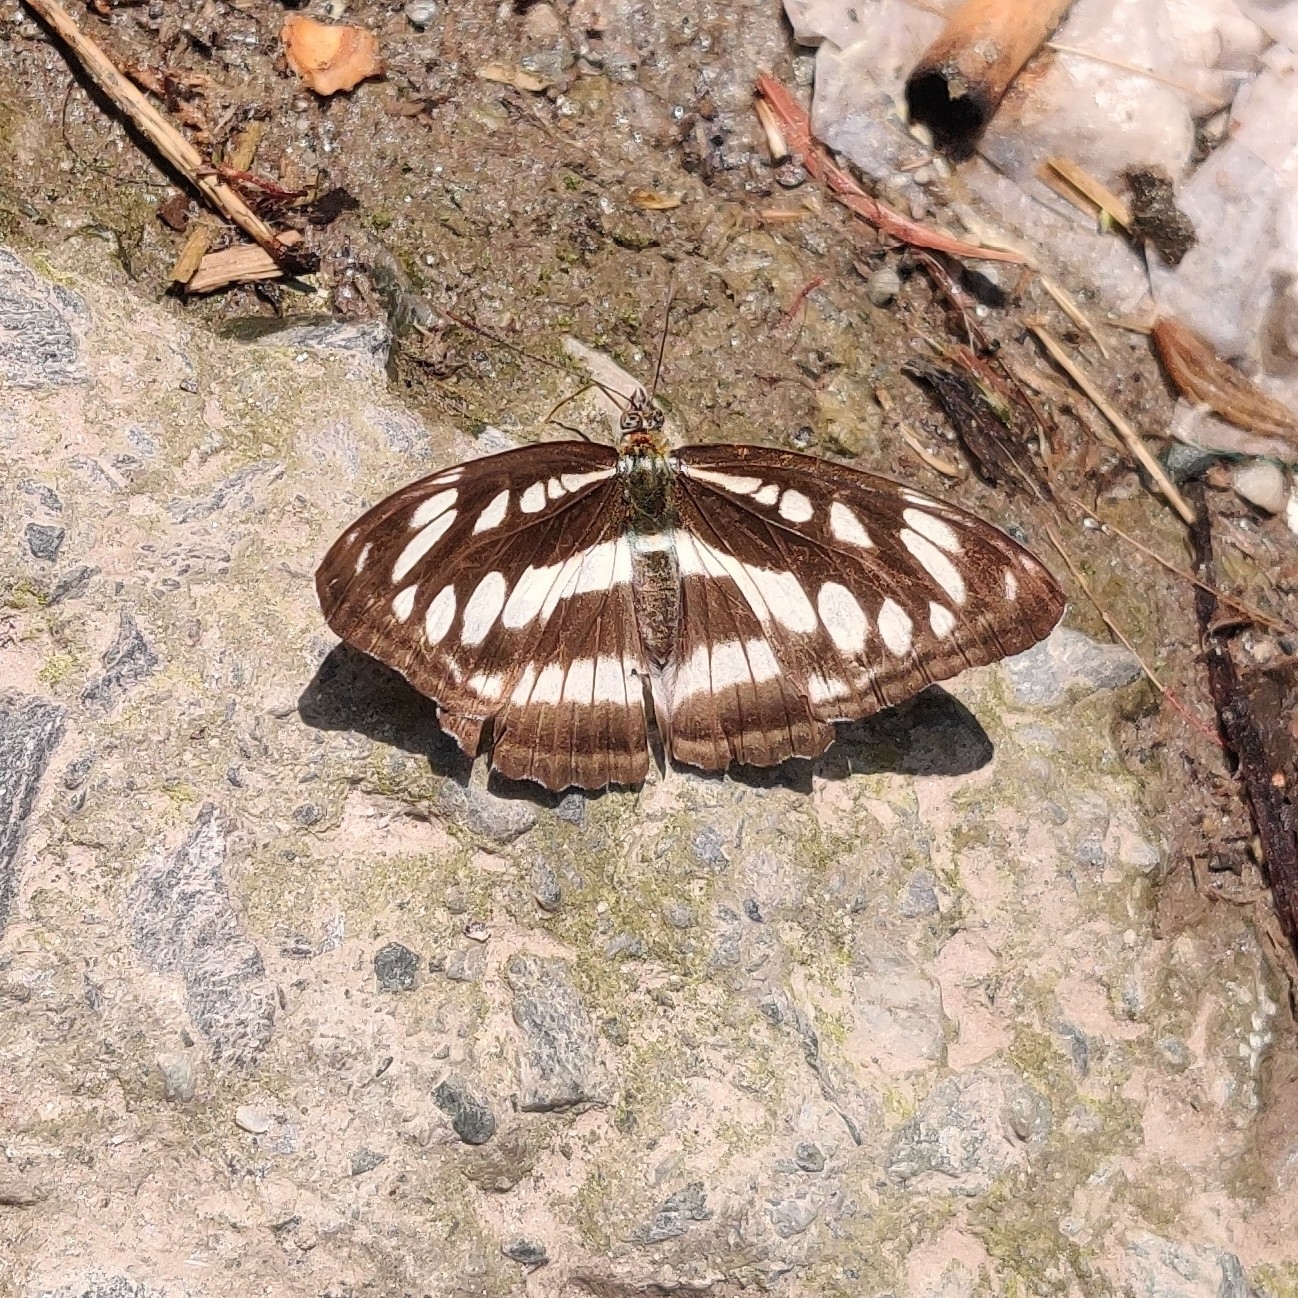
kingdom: Animalia
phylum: Arthropoda
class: Insecta
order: Lepidoptera
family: Nymphalidae
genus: Parathyma
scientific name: Parathyma opalina
